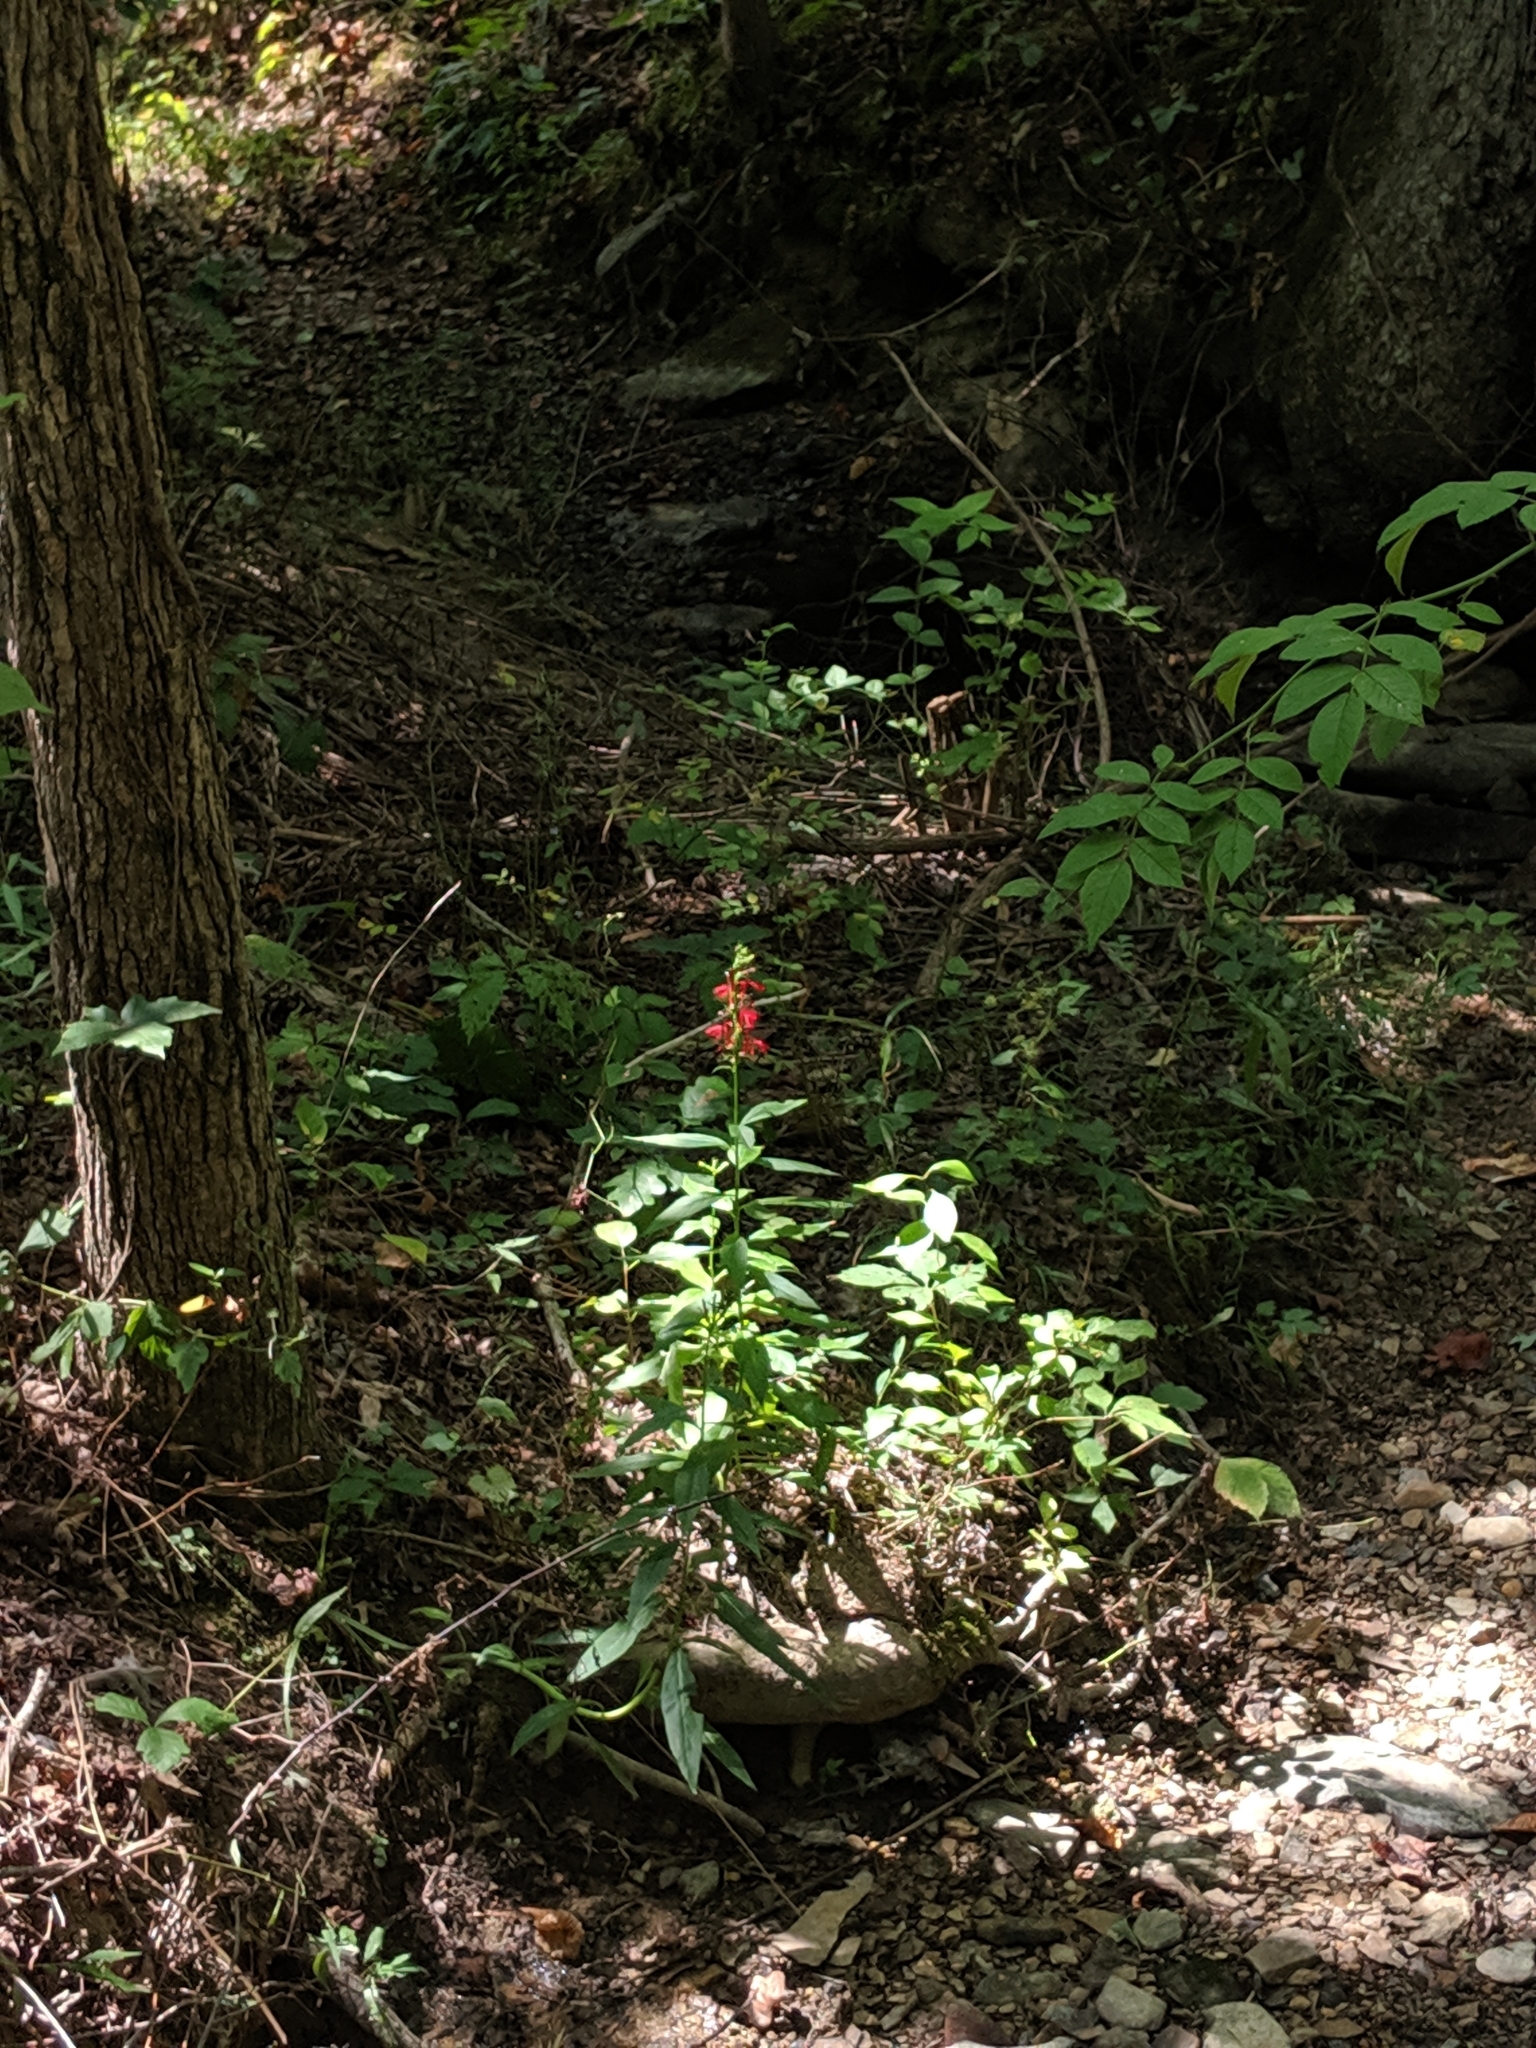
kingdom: Plantae
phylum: Tracheophyta
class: Magnoliopsida
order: Asterales
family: Campanulaceae
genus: Lobelia
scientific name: Lobelia cardinalis
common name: Cardinal flower
